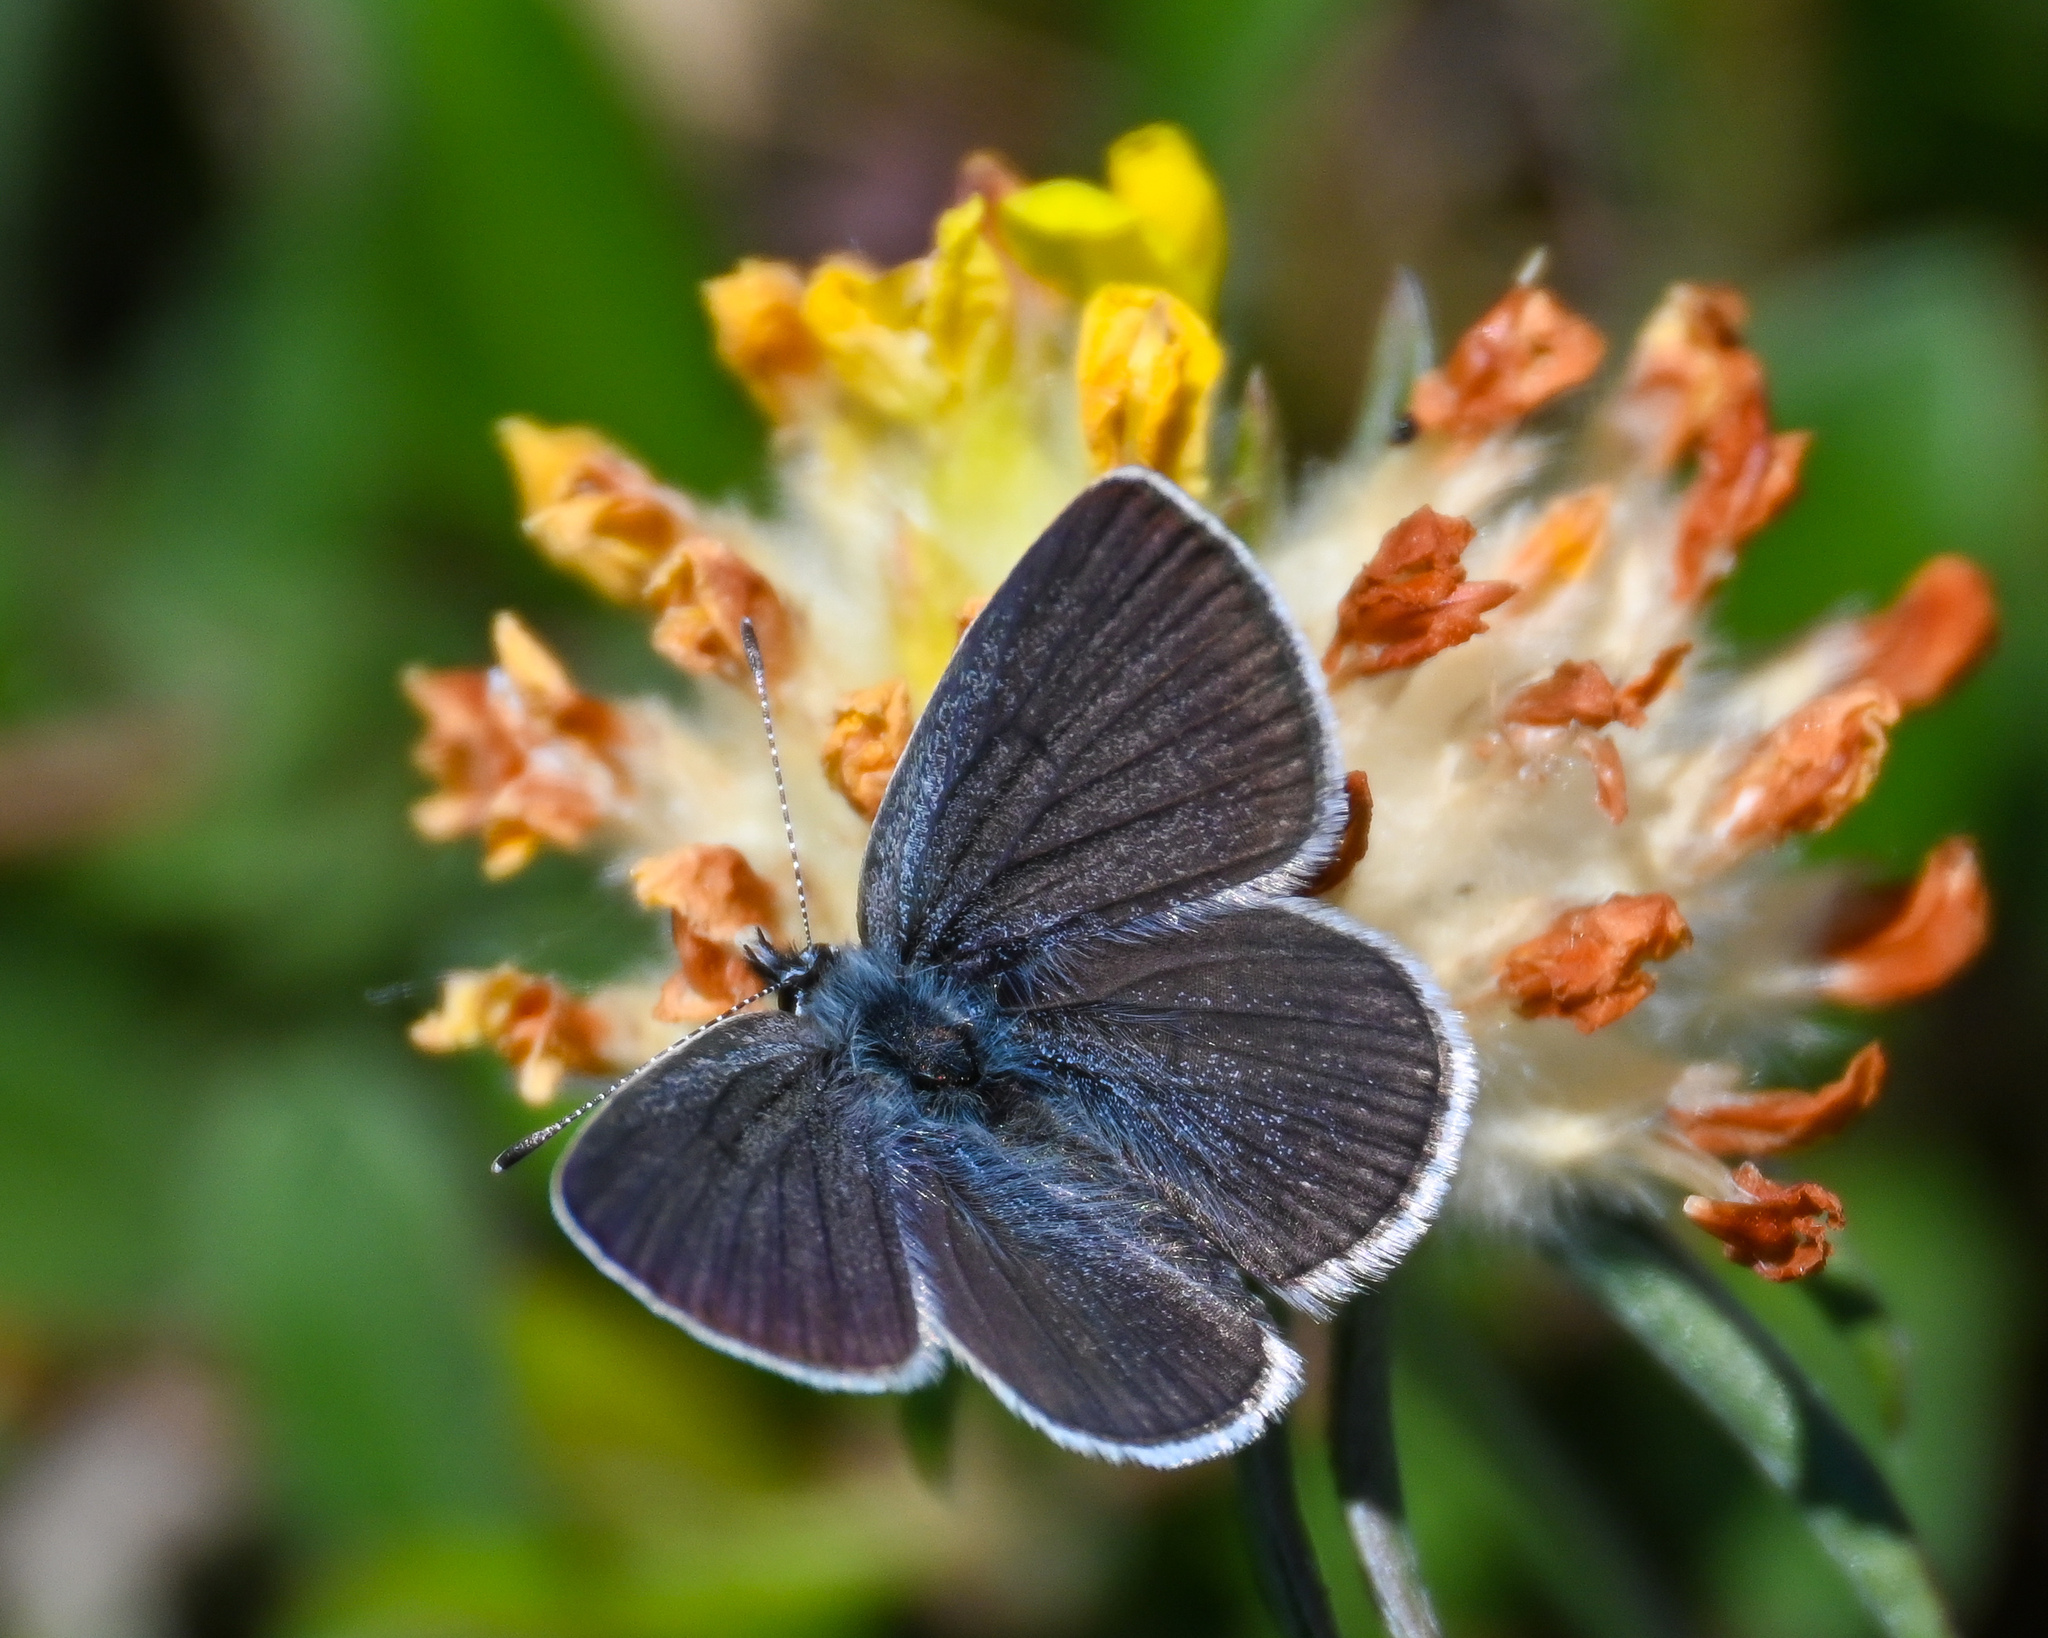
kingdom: Animalia
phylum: Arthropoda
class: Insecta
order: Lepidoptera
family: Lycaenidae
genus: Cupido
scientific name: Cupido minimus
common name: Small blue
